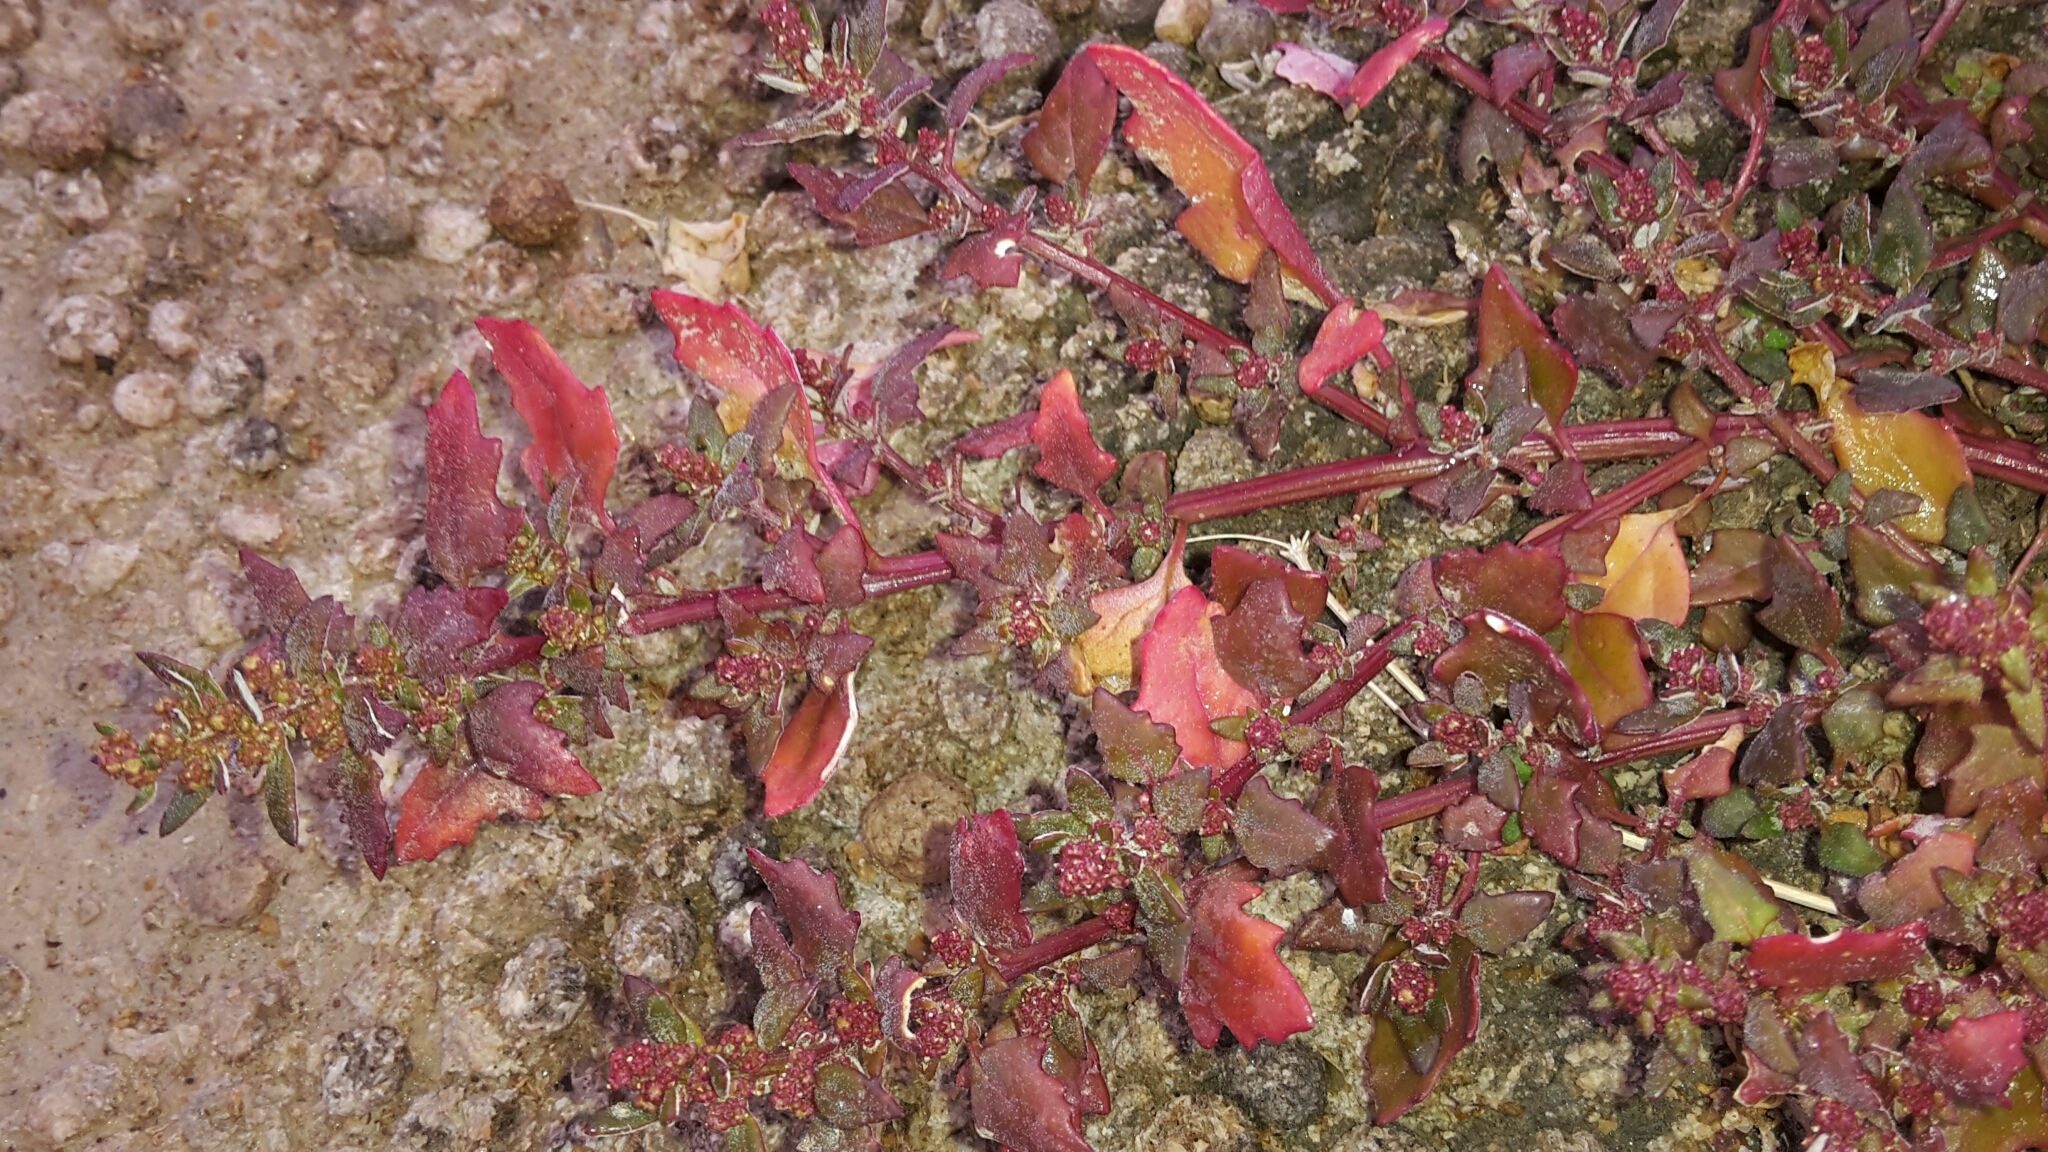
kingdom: Plantae
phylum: Tracheophyta
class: Magnoliopsida
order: Caryophyllales
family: Amaranthaceae
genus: Oxybasis
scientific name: Oxybasis ambigua
